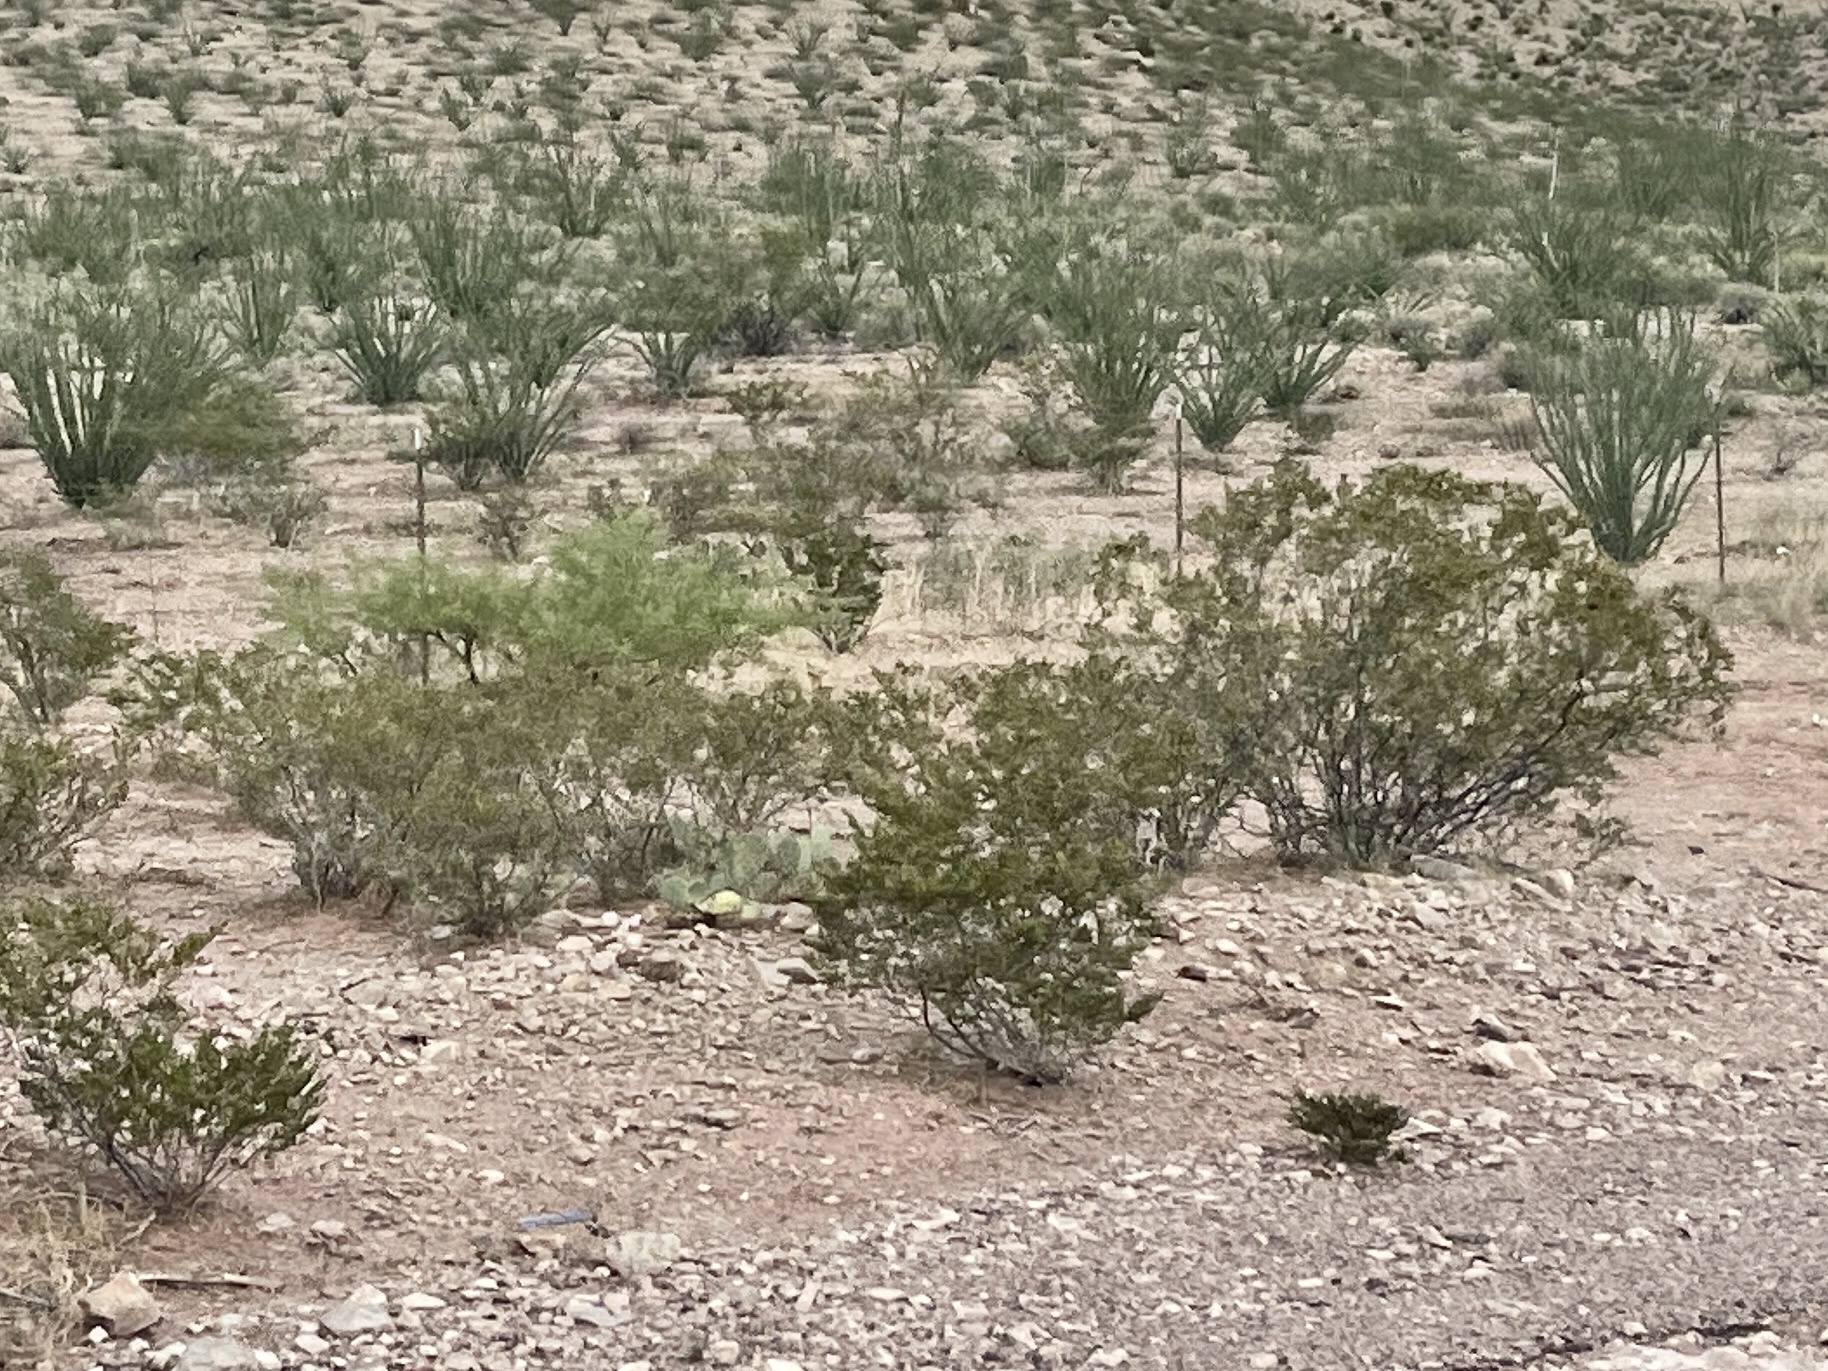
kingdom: Plantae
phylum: Tracheophyta
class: Magnoliopsida
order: Zygophyllales
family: Zygophyllaceae
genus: Larrea
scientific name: Larrea tridentata
